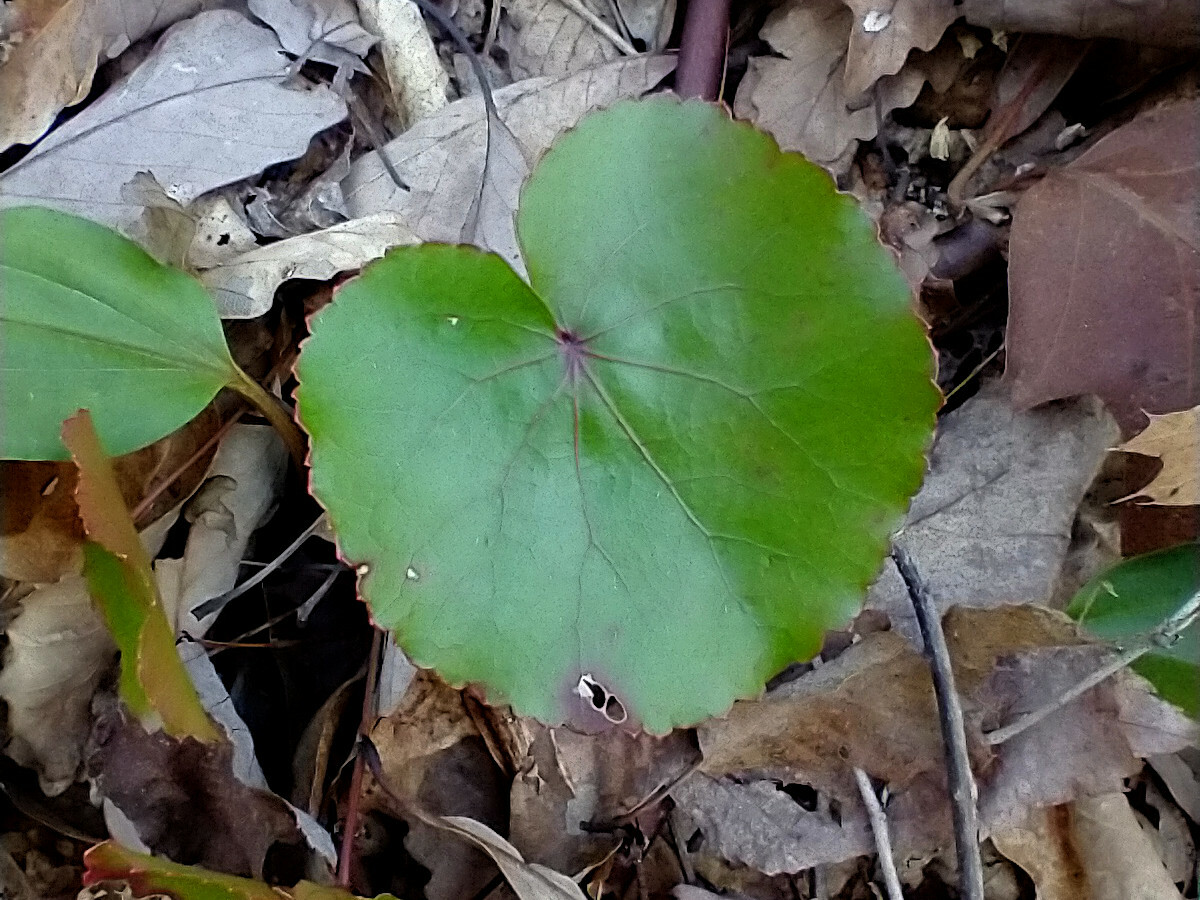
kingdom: Plantae
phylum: Tracheophyta
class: Magnoliopsida
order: Ericales
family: Diapensiaceae
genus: Galax
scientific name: Galax urceolata
